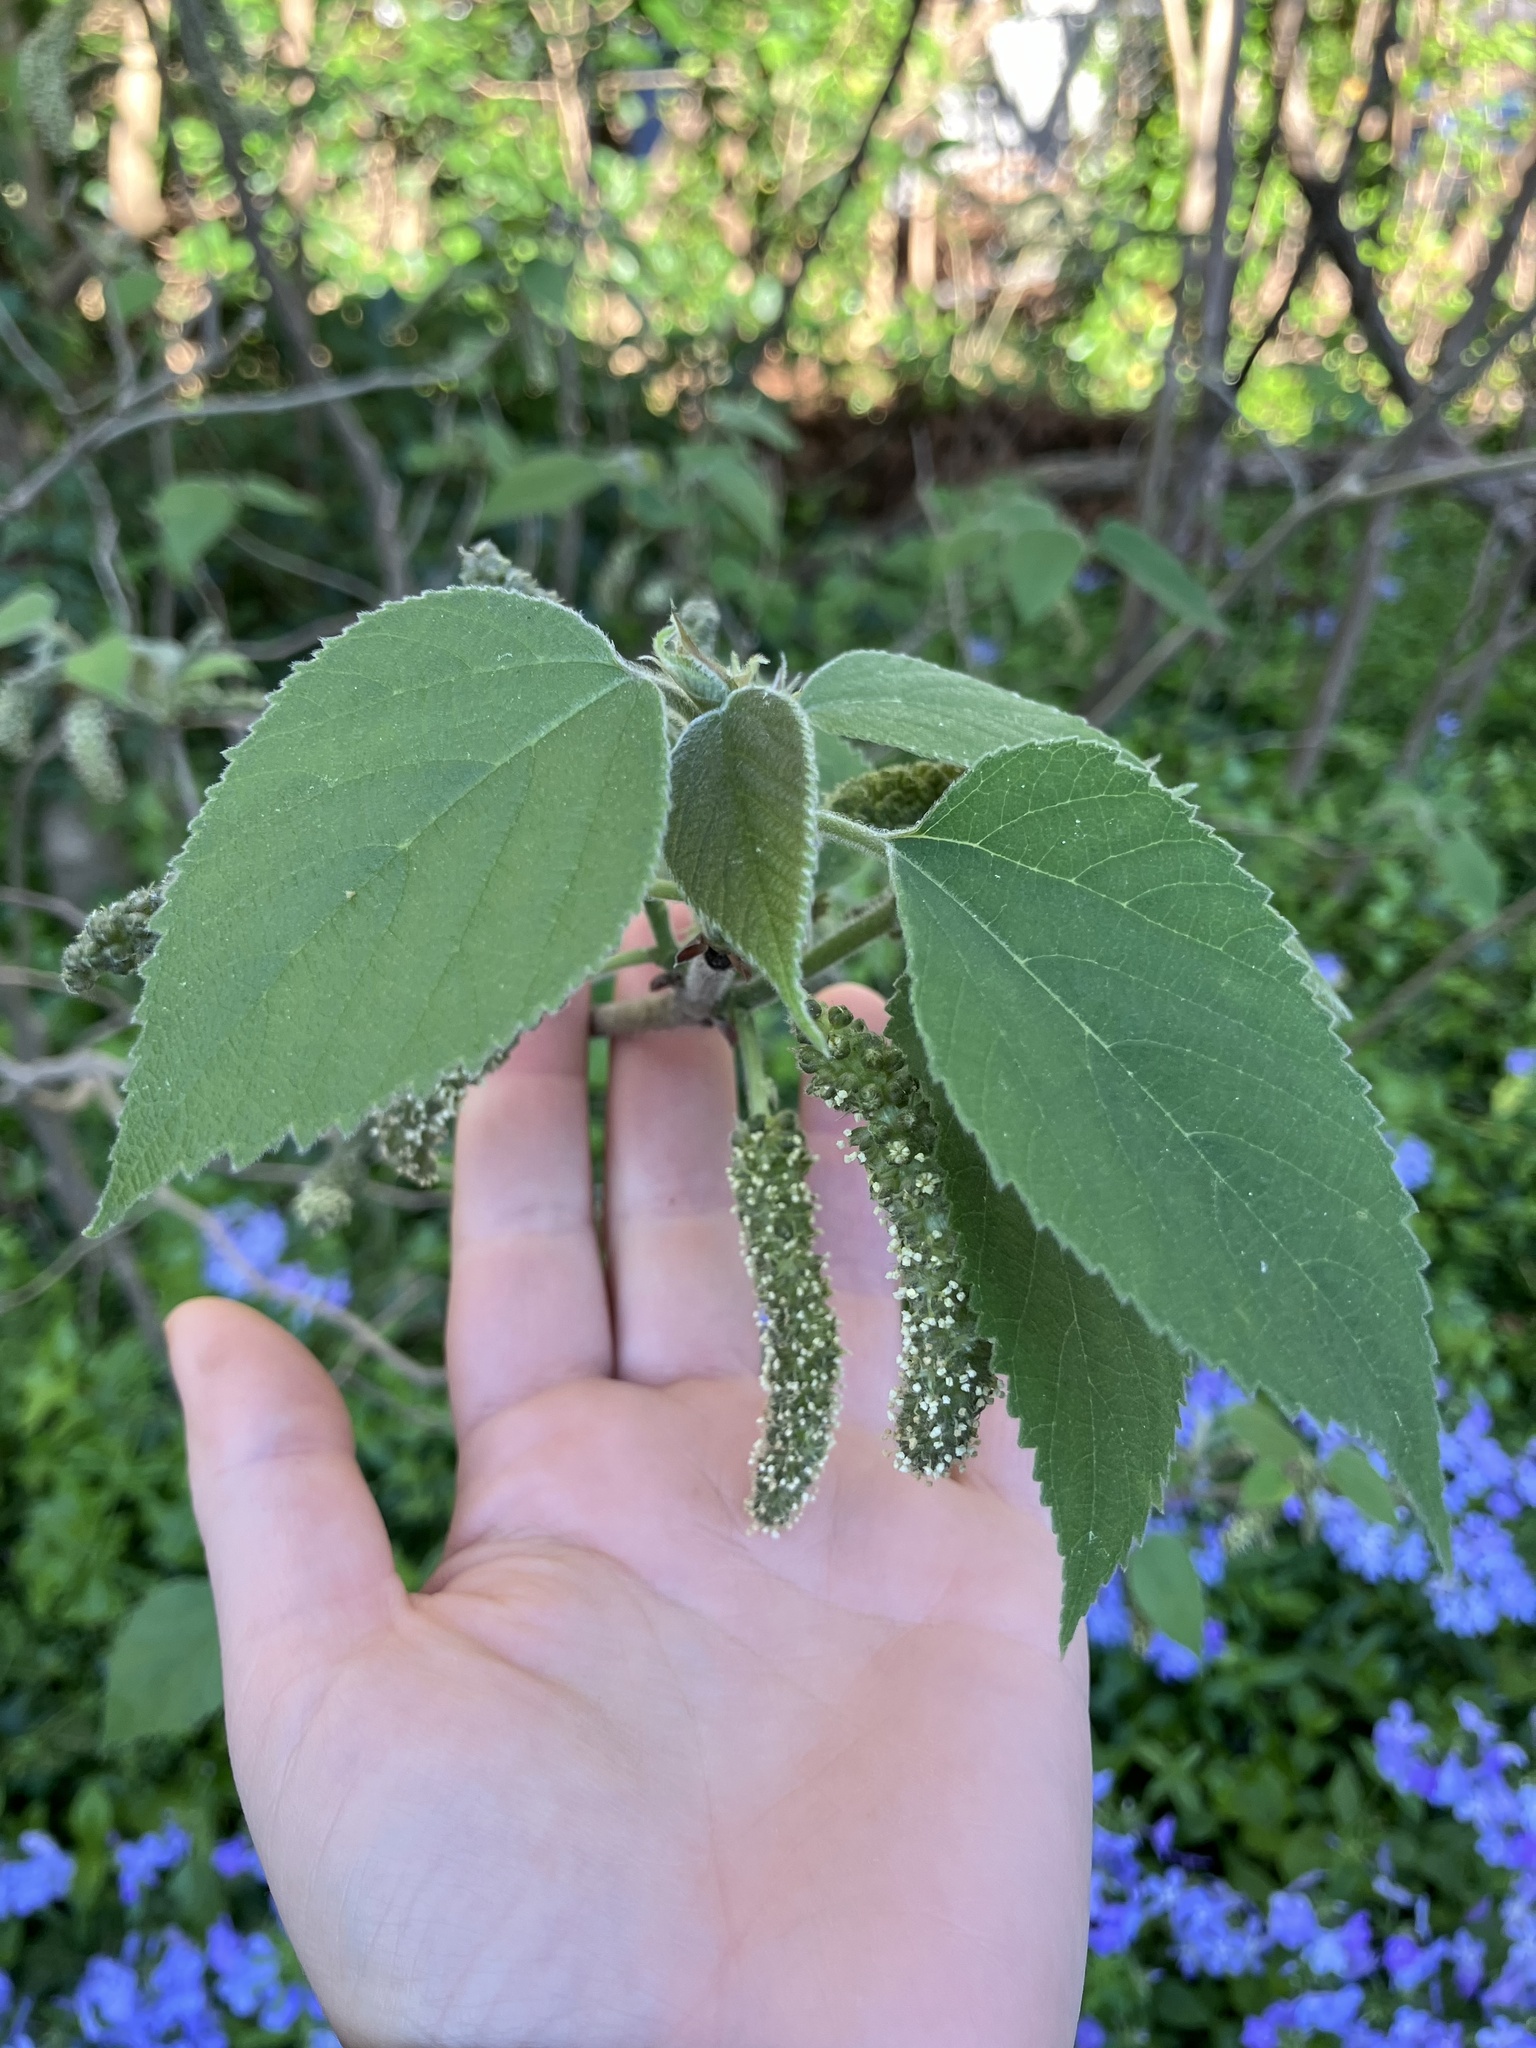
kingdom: Plantae
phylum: Tracheophyta
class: Magnoliopsida
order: Rosales
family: Moraceae
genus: Broussonetia
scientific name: Broussonetia papyrifera
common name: Paper mulberry
